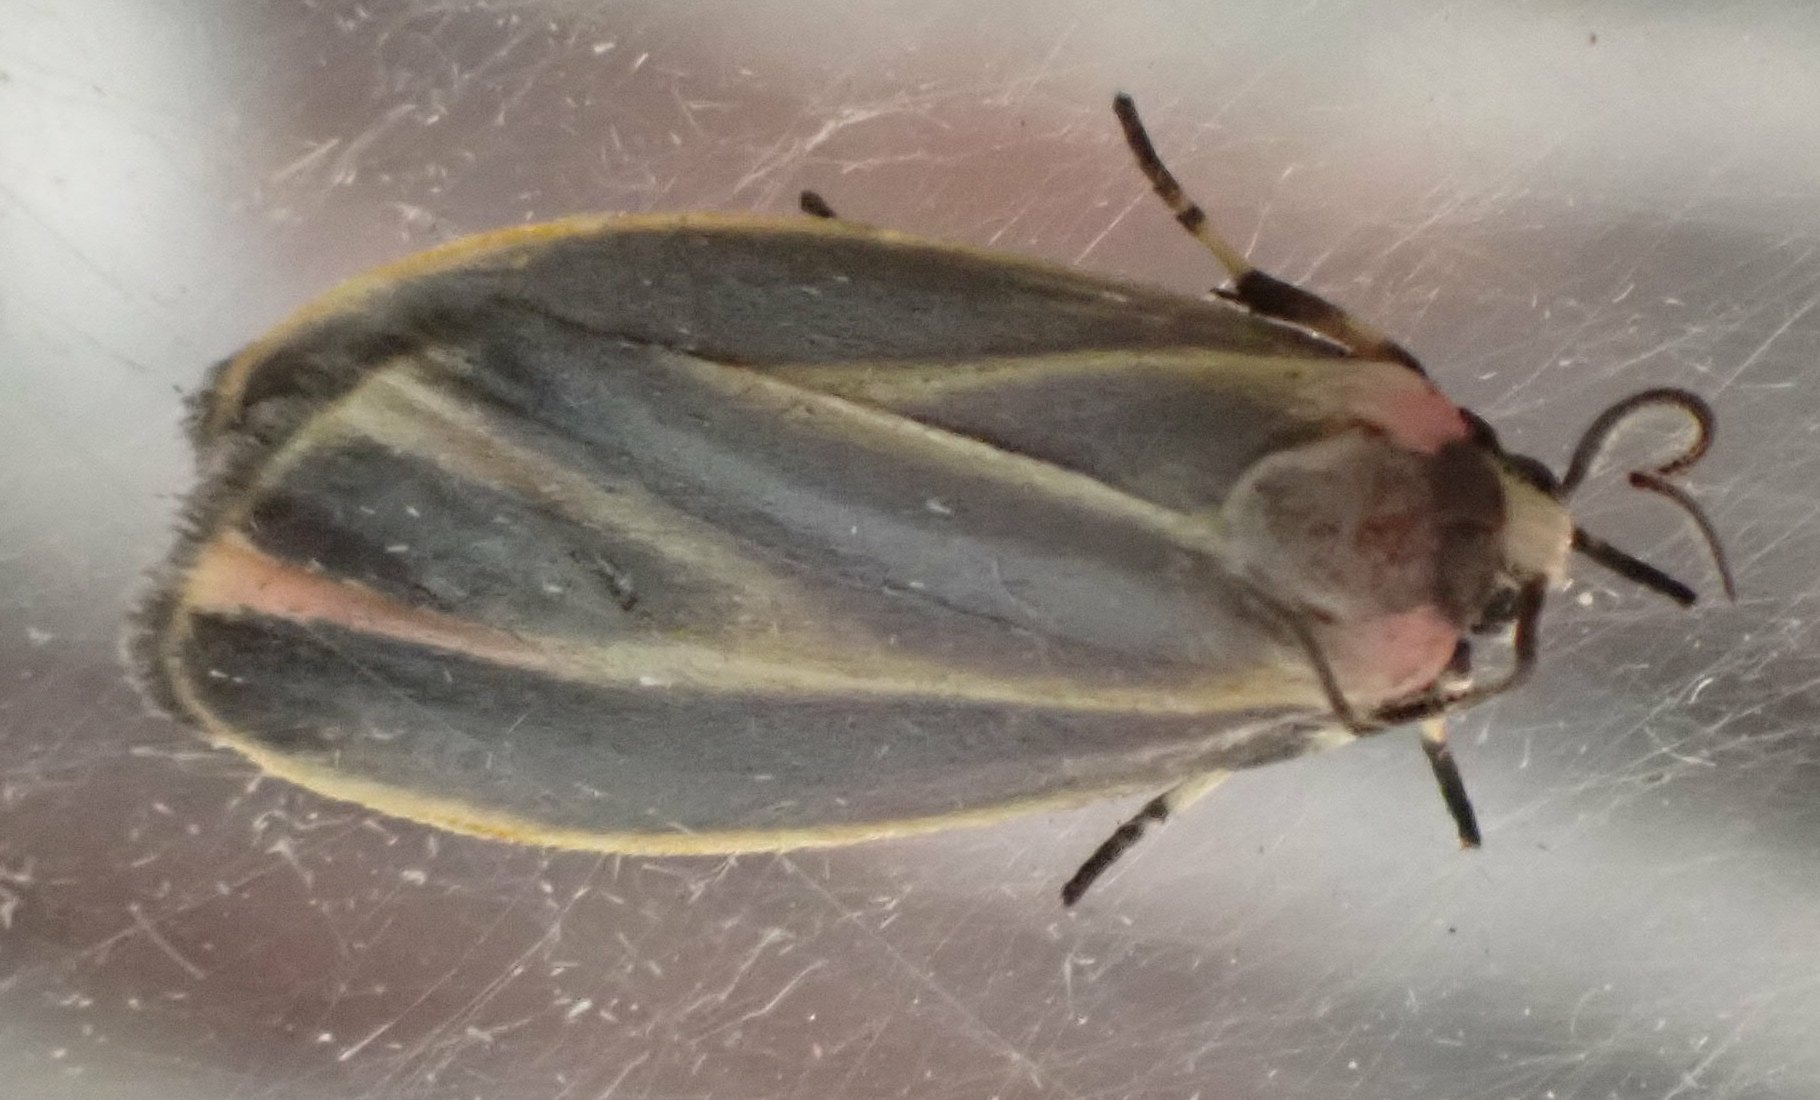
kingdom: Animalia
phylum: Arthropoda
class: Insecta
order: Lepidoptera
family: Erebidae
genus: Hypoprepia
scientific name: Hypoprepia fucosa
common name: Painted lichen moth
